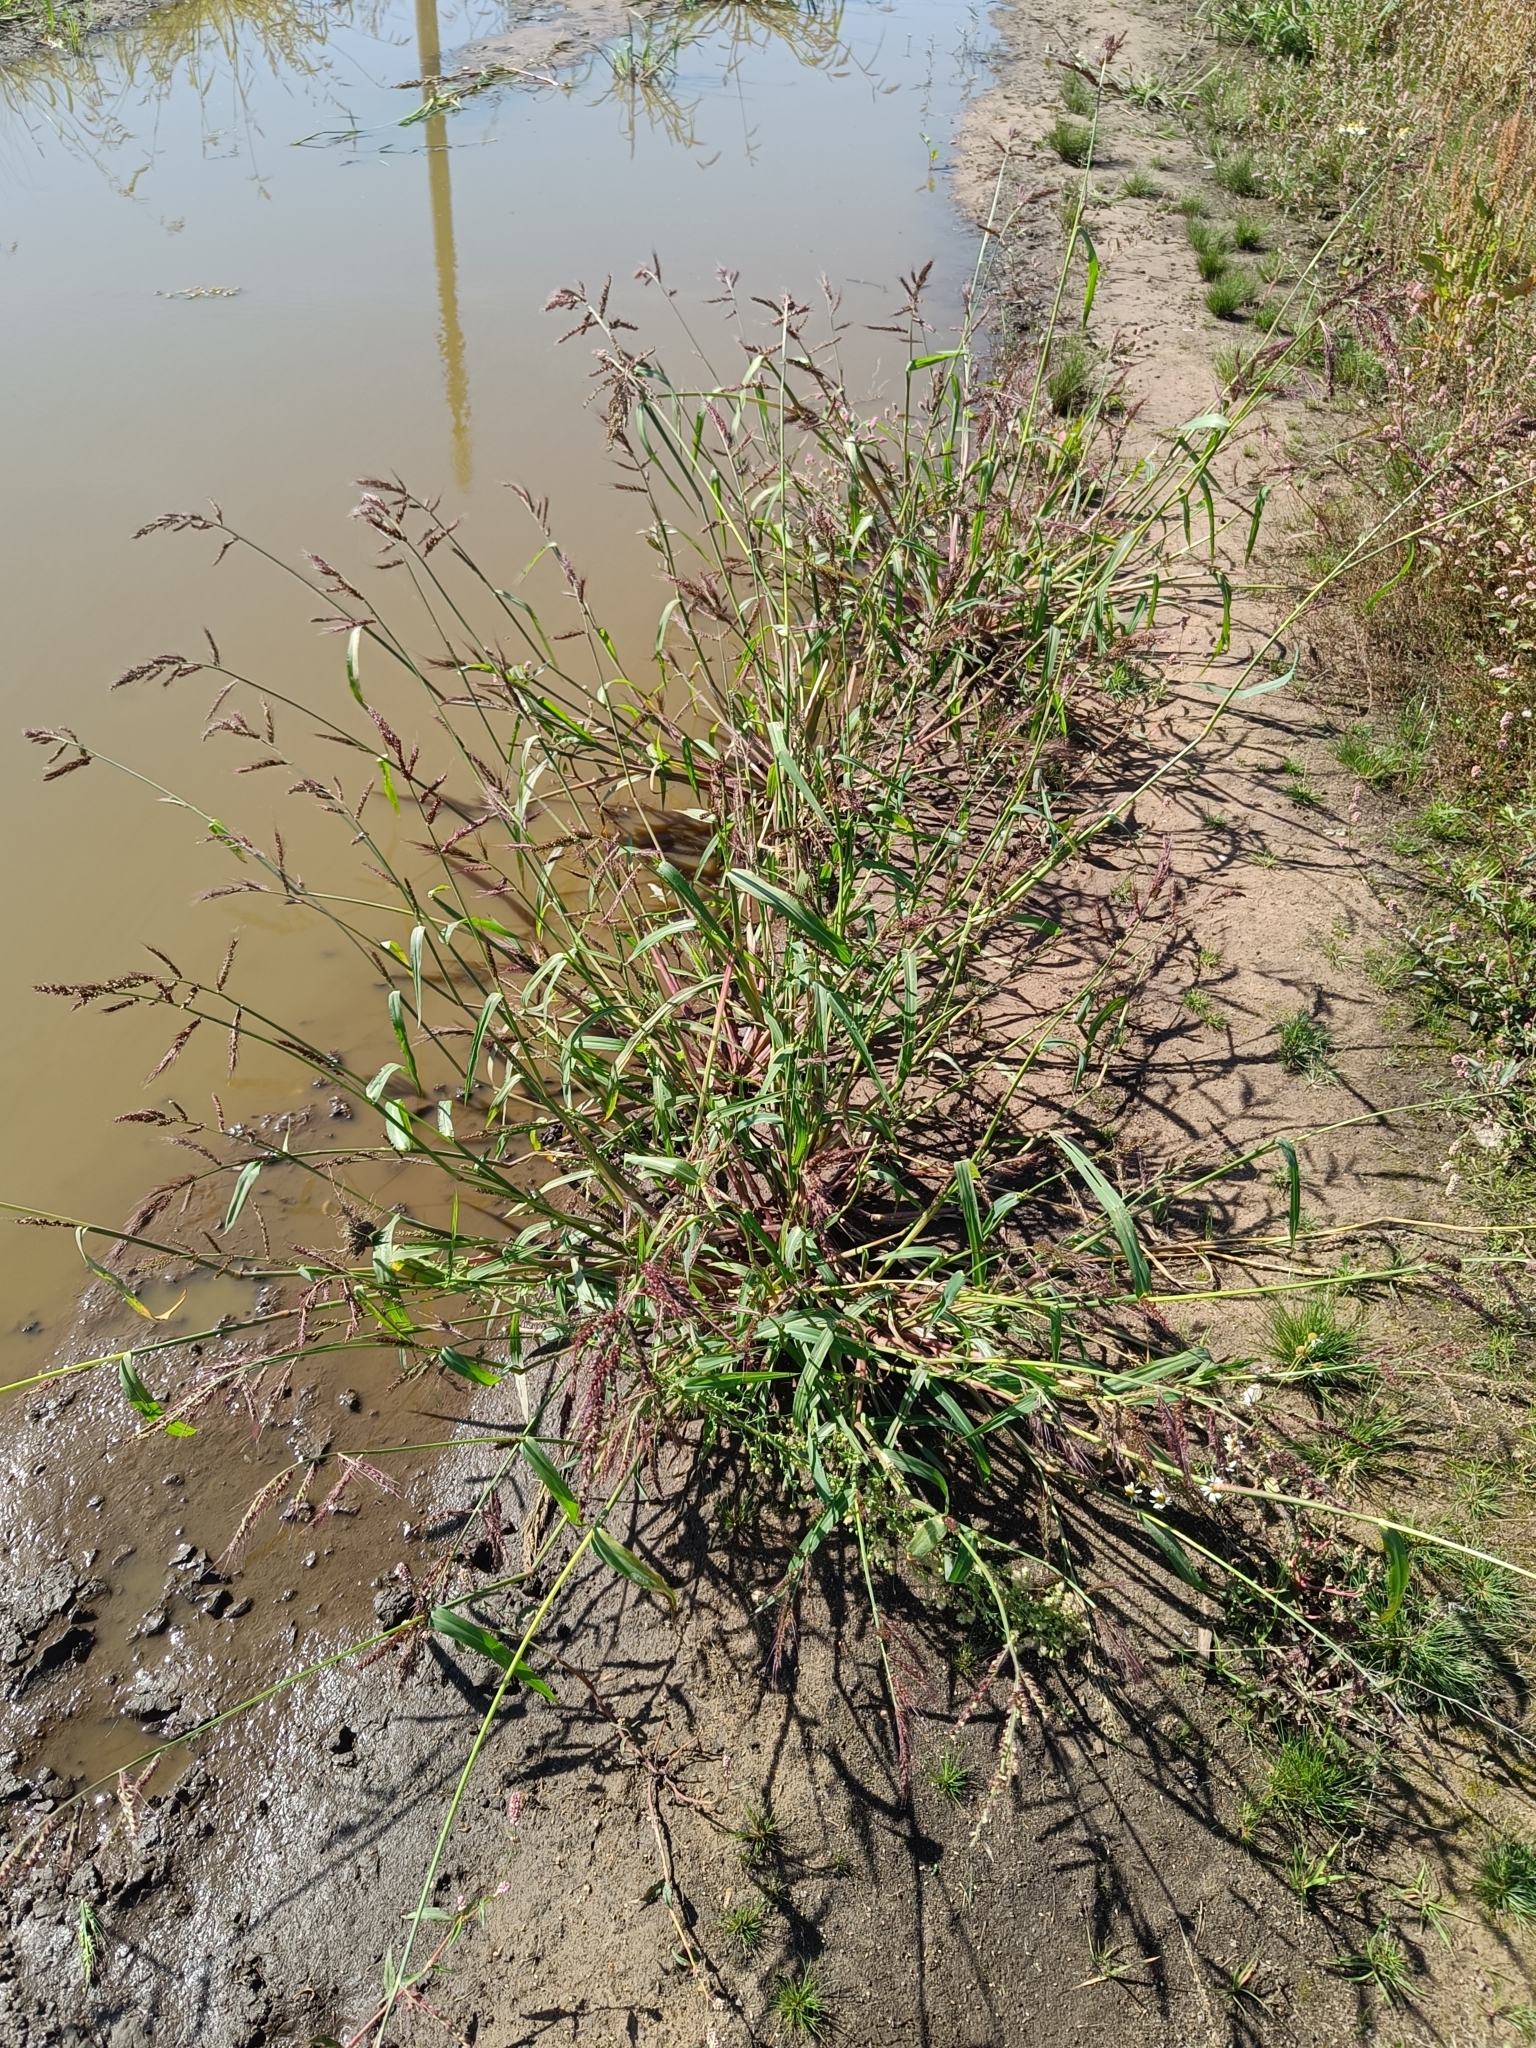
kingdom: Plantae
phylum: Tracheophyta
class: Liliopsida
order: Poales
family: Poaceae
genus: Echinochloa
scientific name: Echinochloa crus-galli
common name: Cockspur
